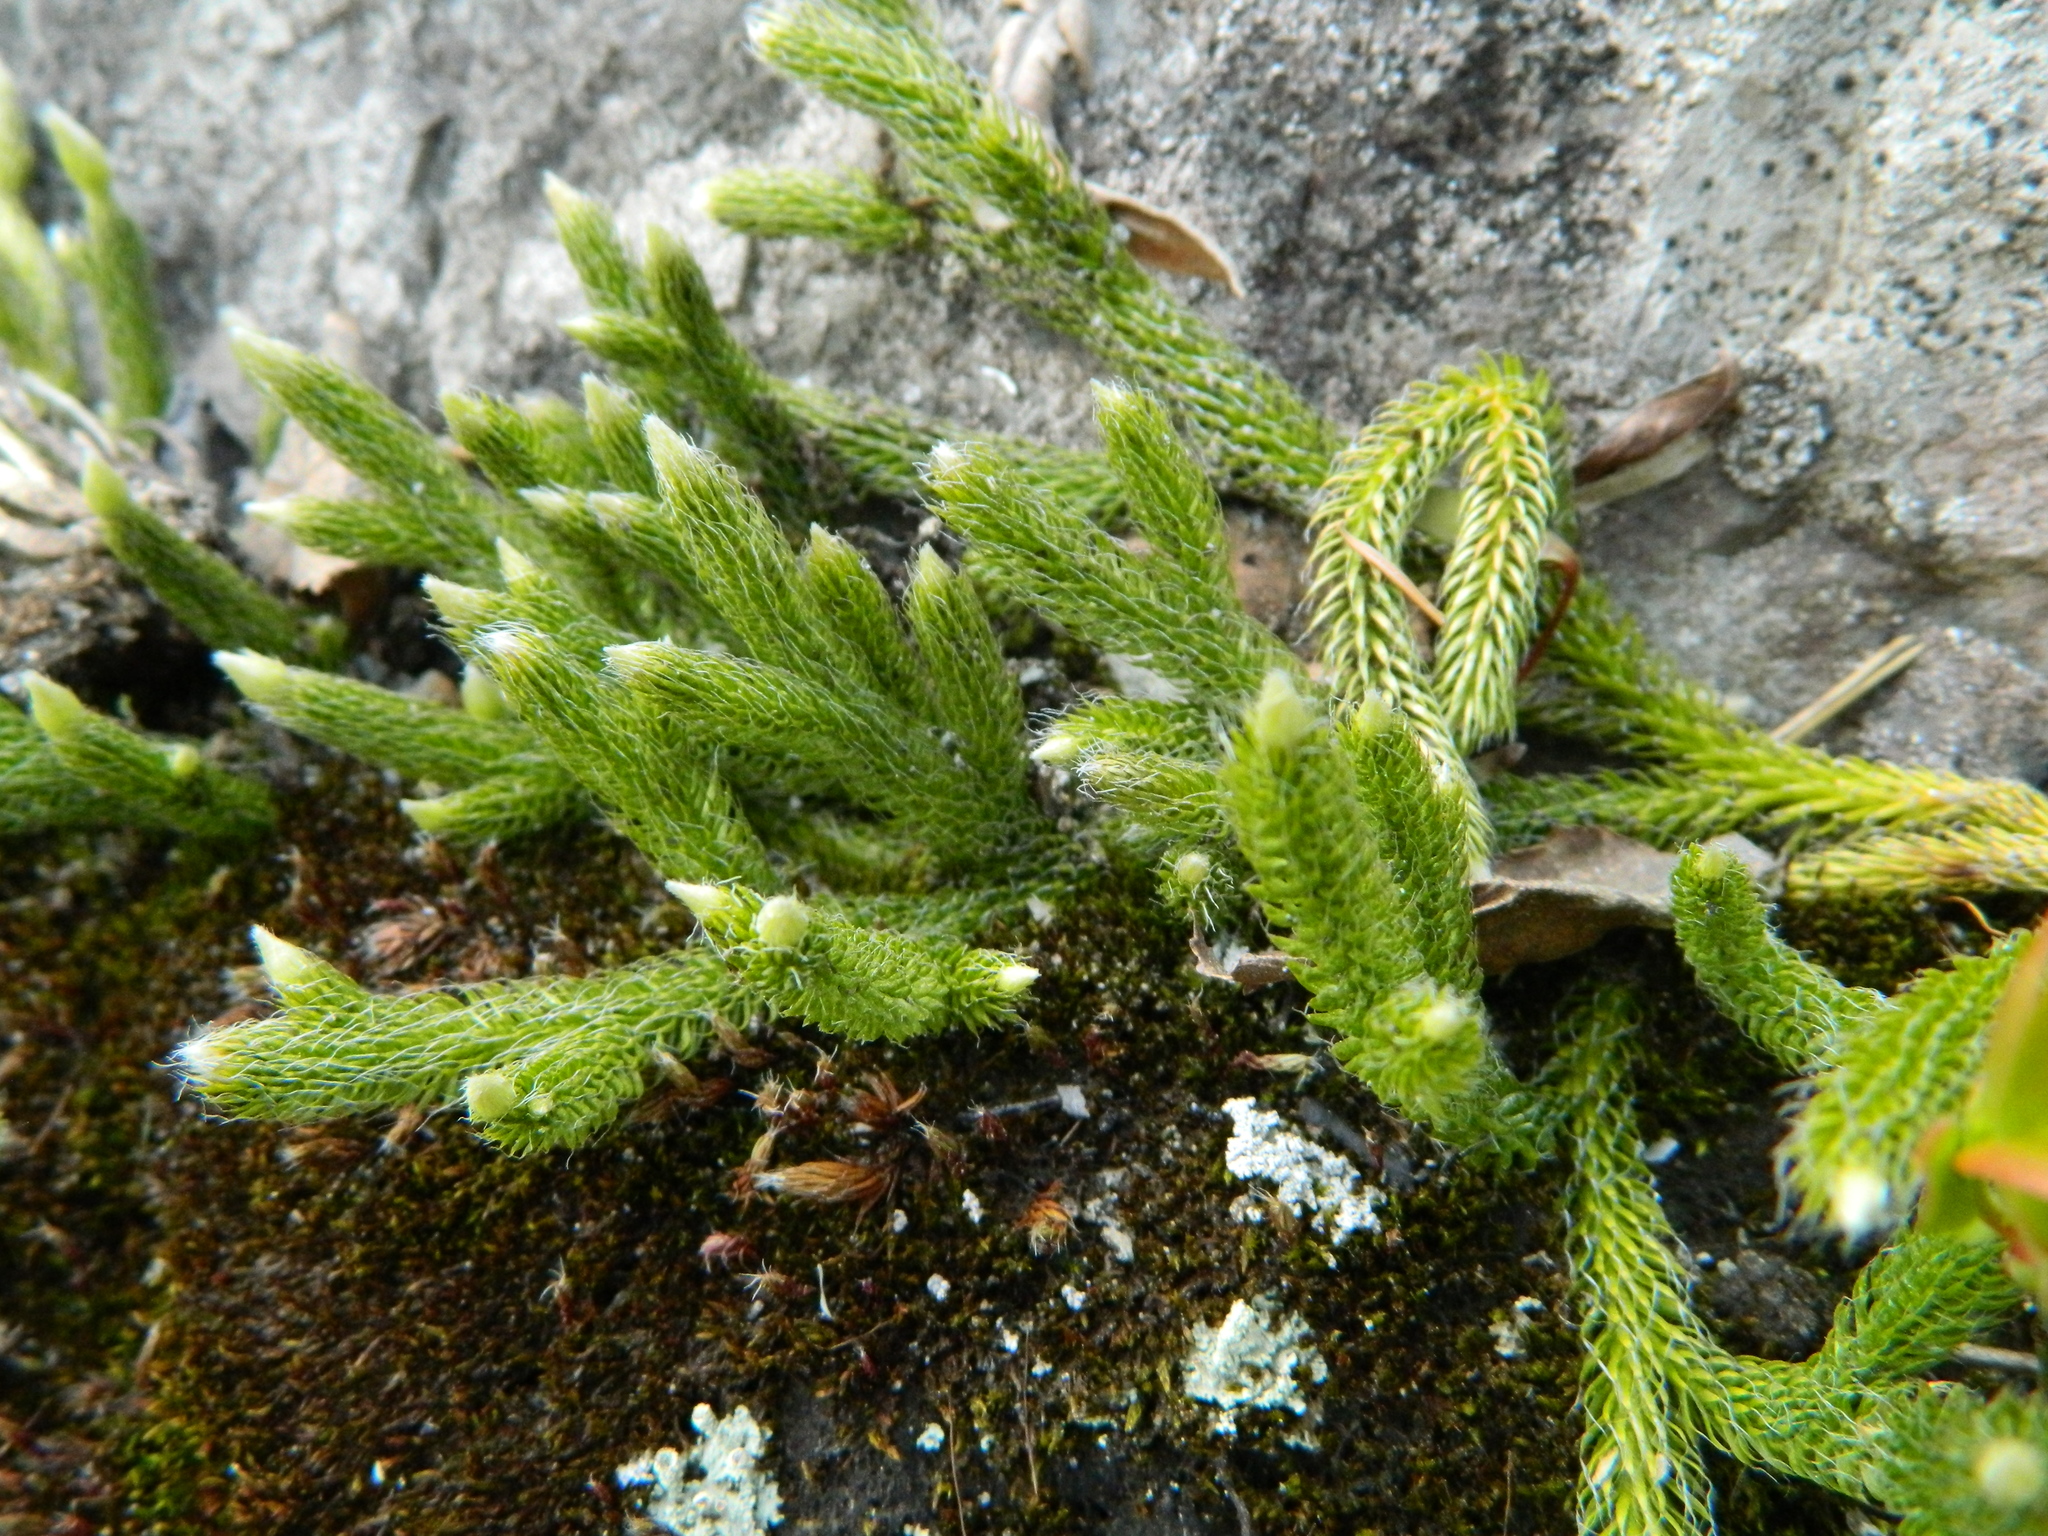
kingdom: Plantae
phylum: Tracheophyta
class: Lycopodiopsida
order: Lycopodiales
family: Lycopodiaceae
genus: Lycopodium
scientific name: Lycopodium lagopus
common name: One-cone clubmoss
